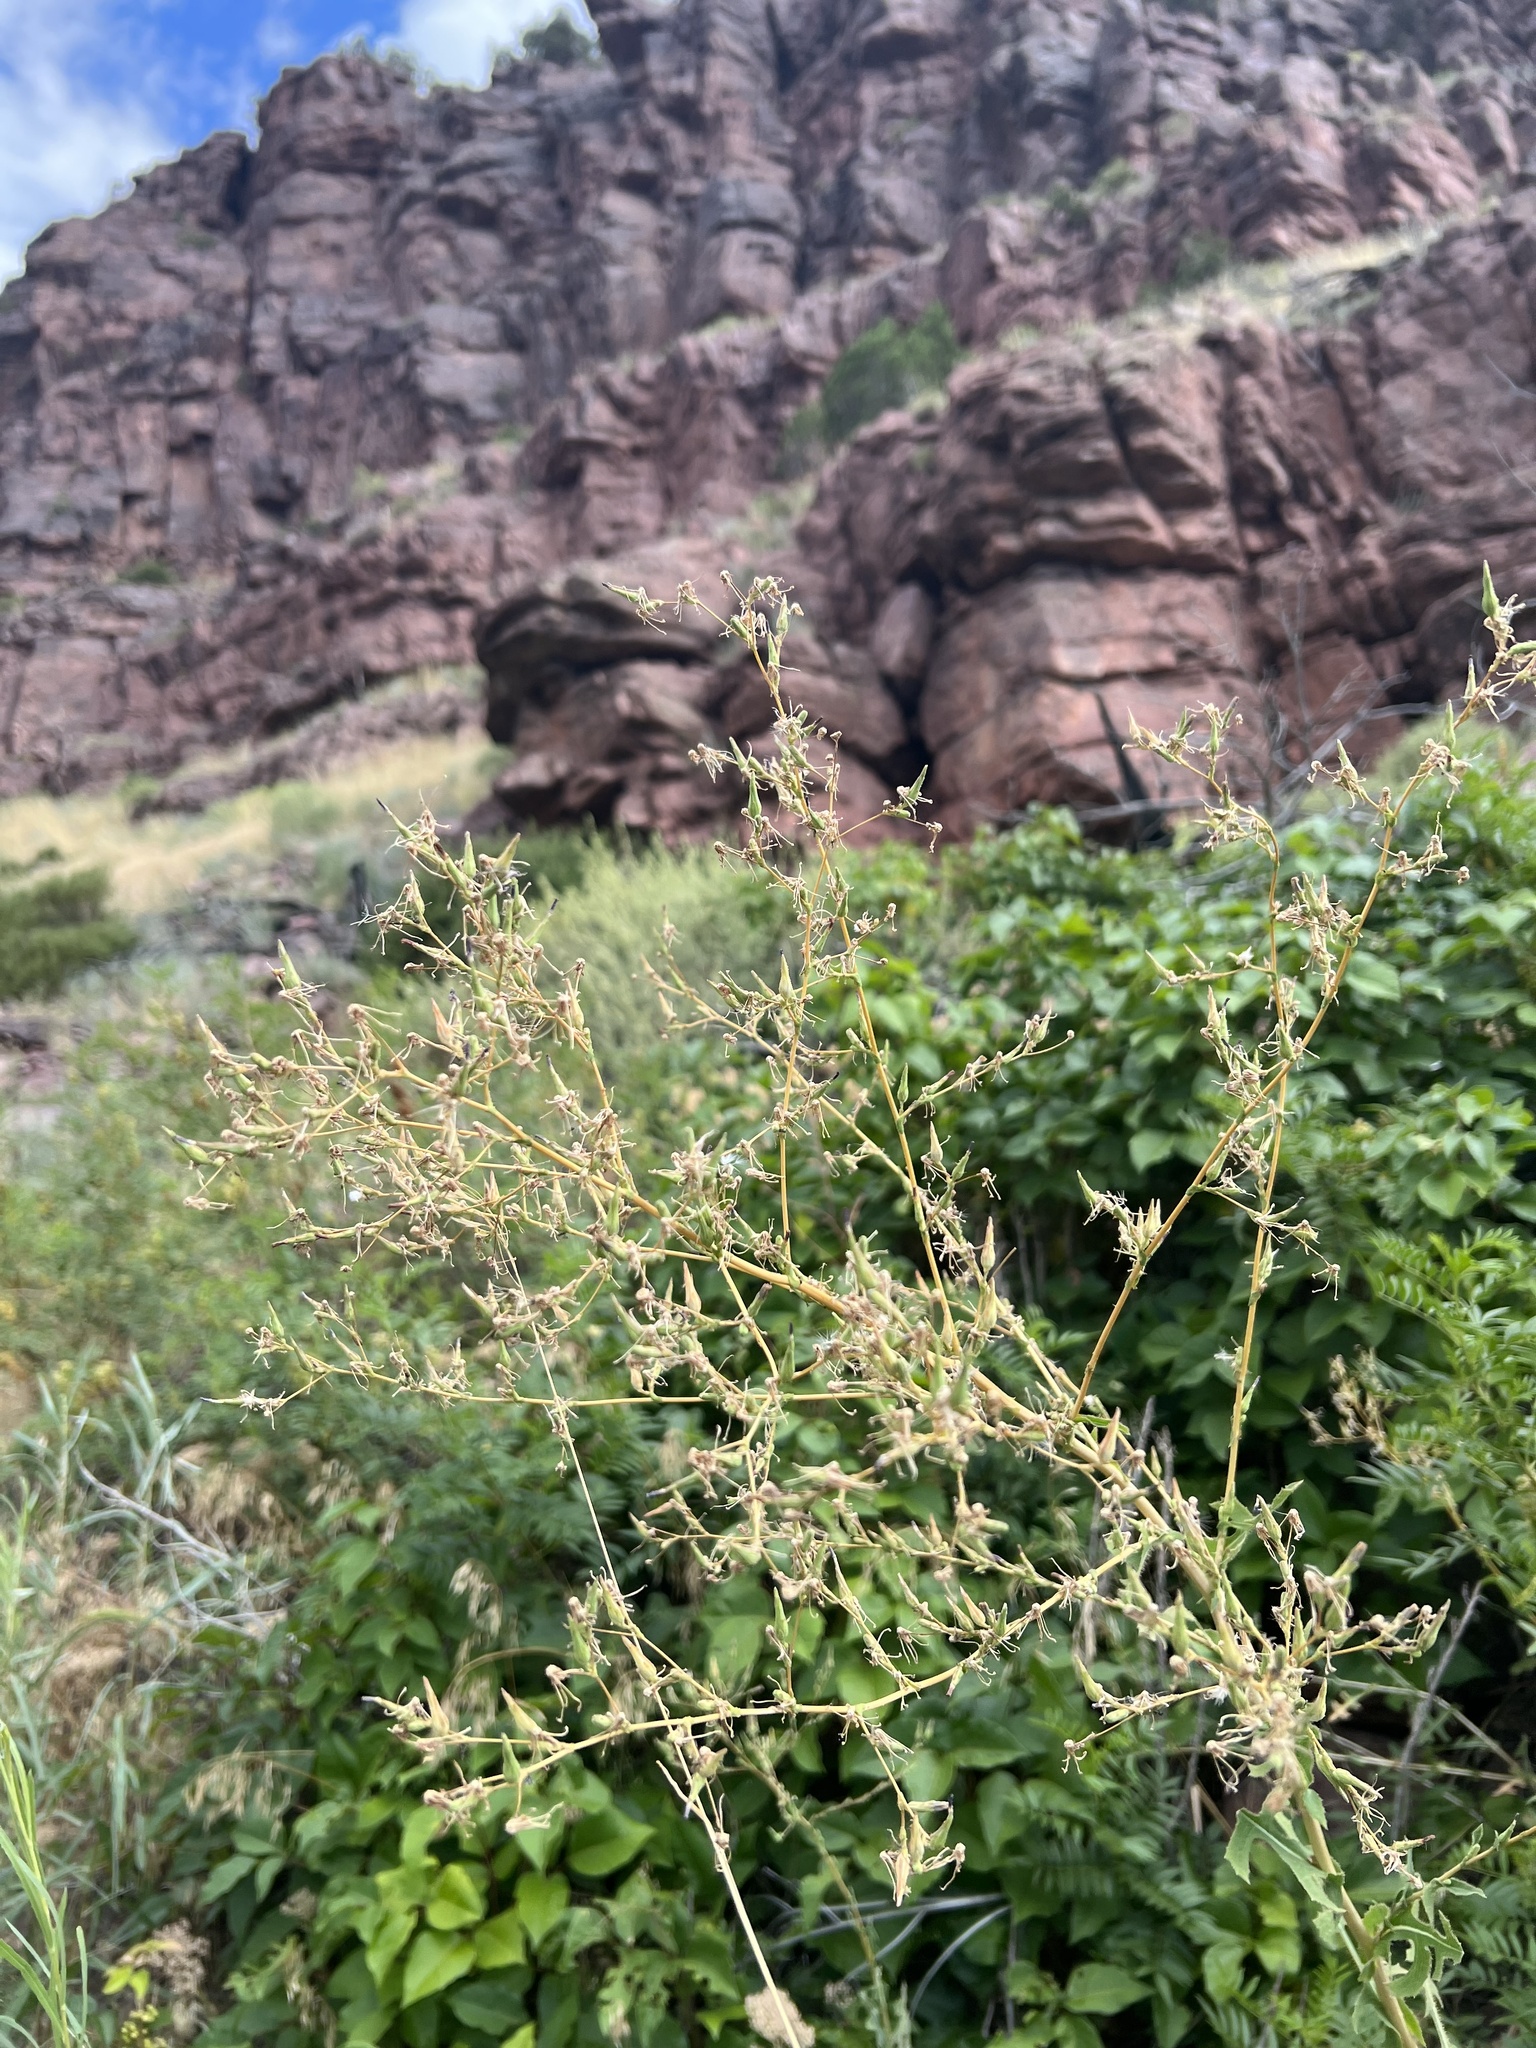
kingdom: Plantae
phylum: Tracheophyta
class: Magnoliopsida
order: Asterales
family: Asteraceae
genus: Lactuca
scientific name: Lactuca serriola
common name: Prickly lettuce
